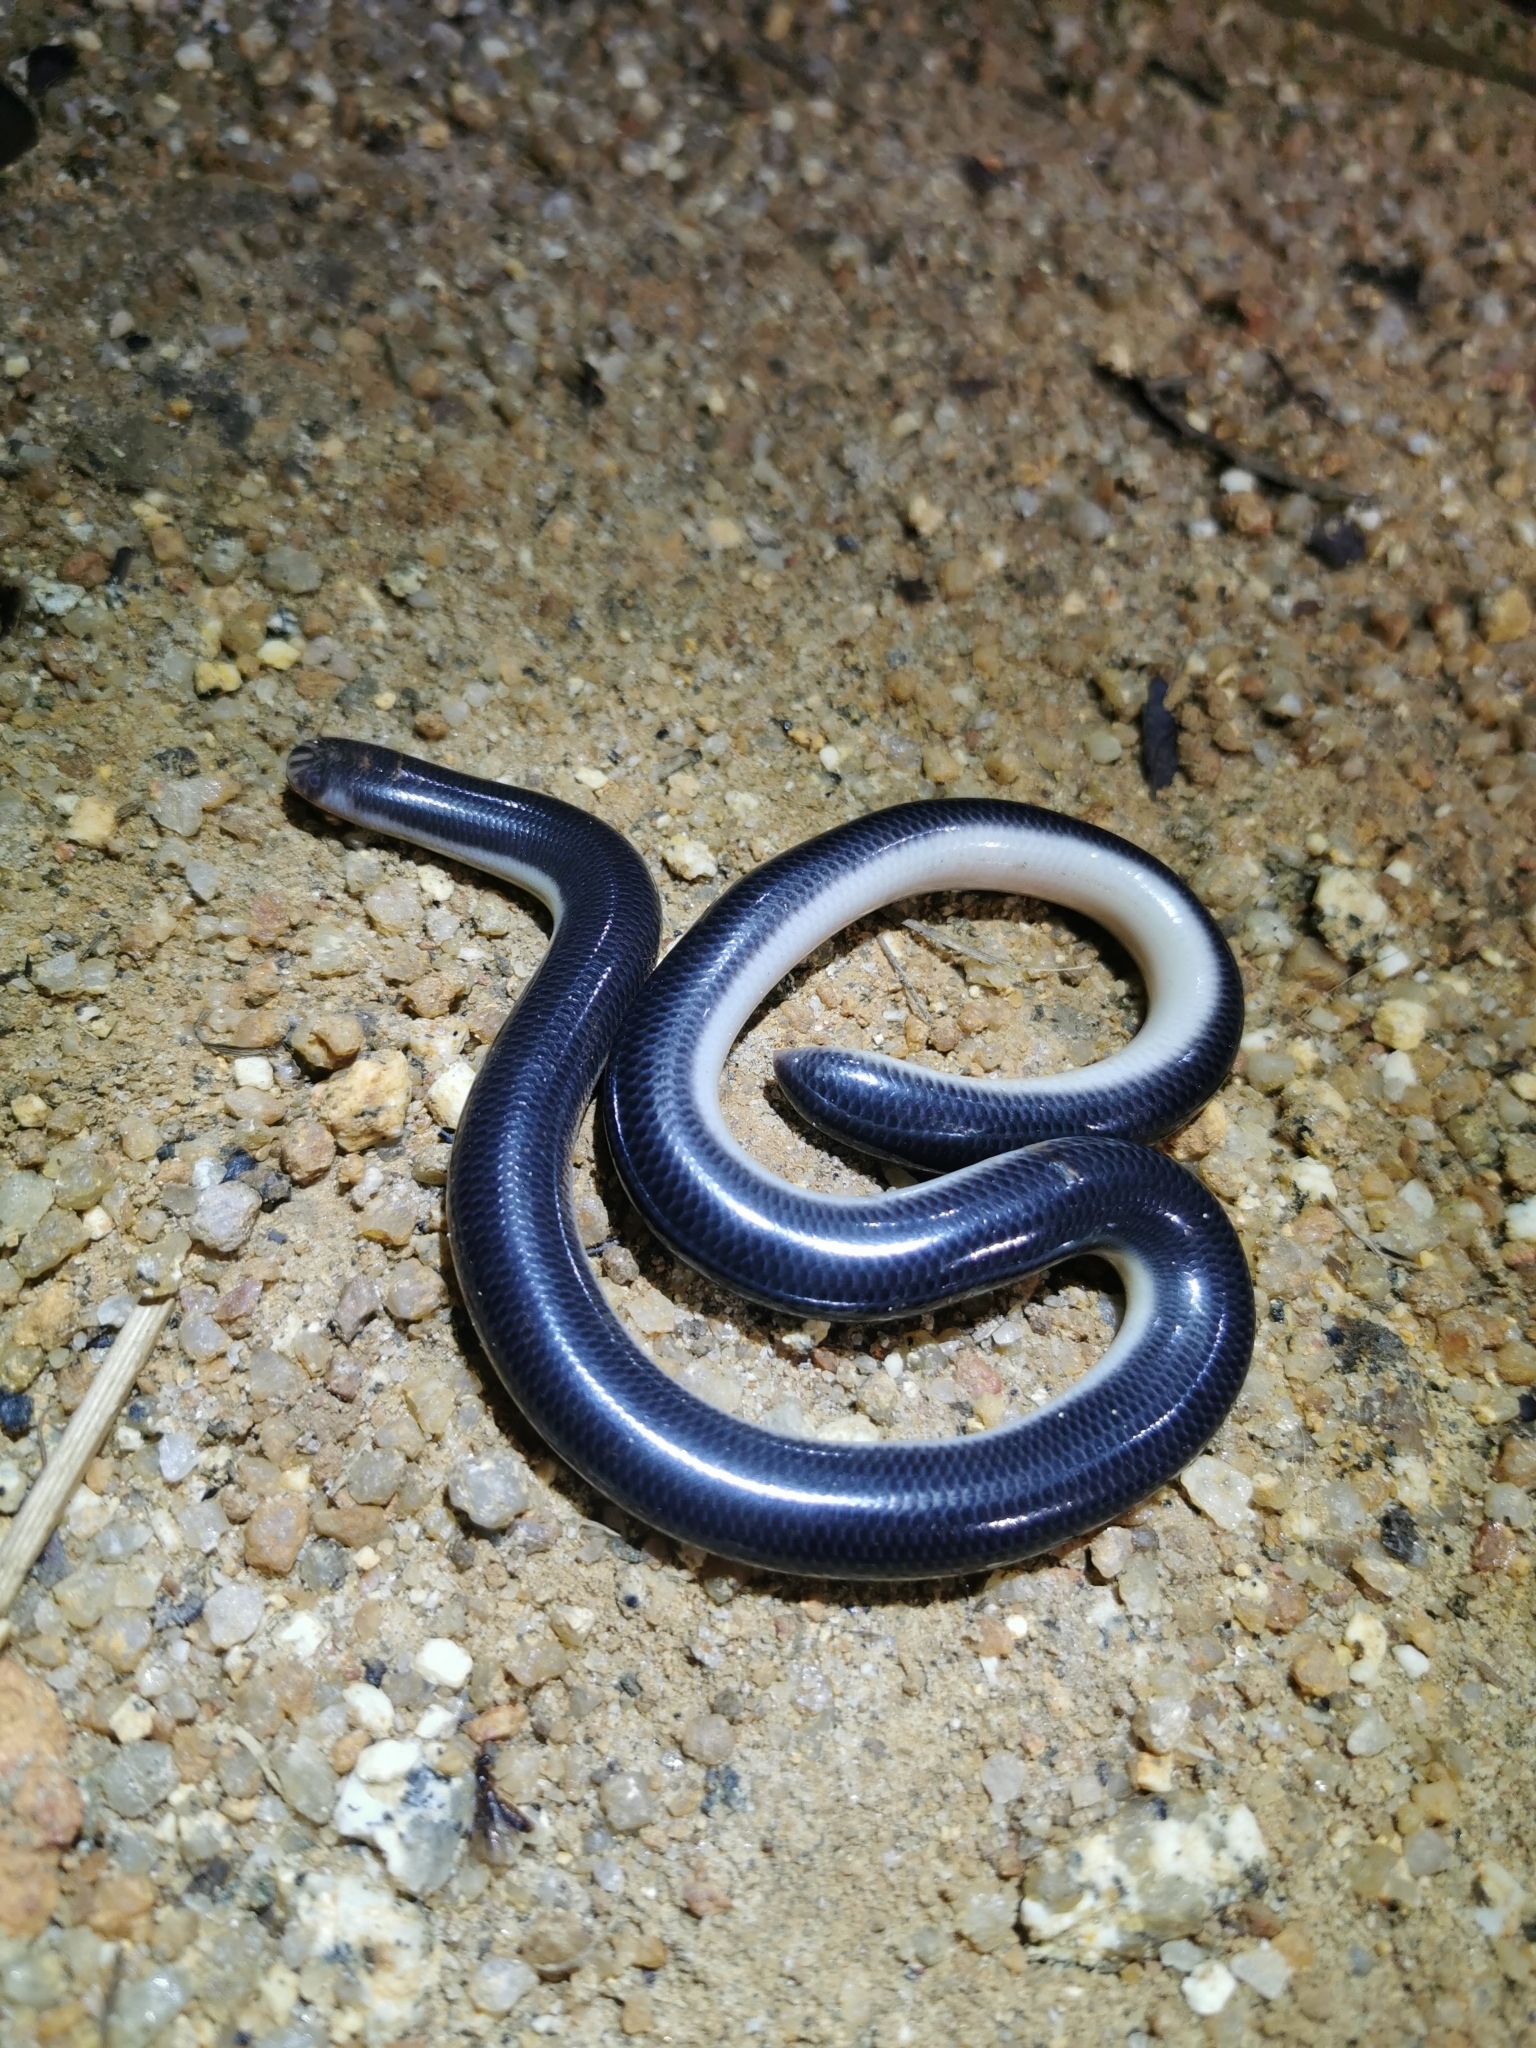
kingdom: Animalia
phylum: Chordata
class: Squamata
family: Typhlopidae
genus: Argyrophis
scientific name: Argyrophis muelleri
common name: Müller's blind snake
